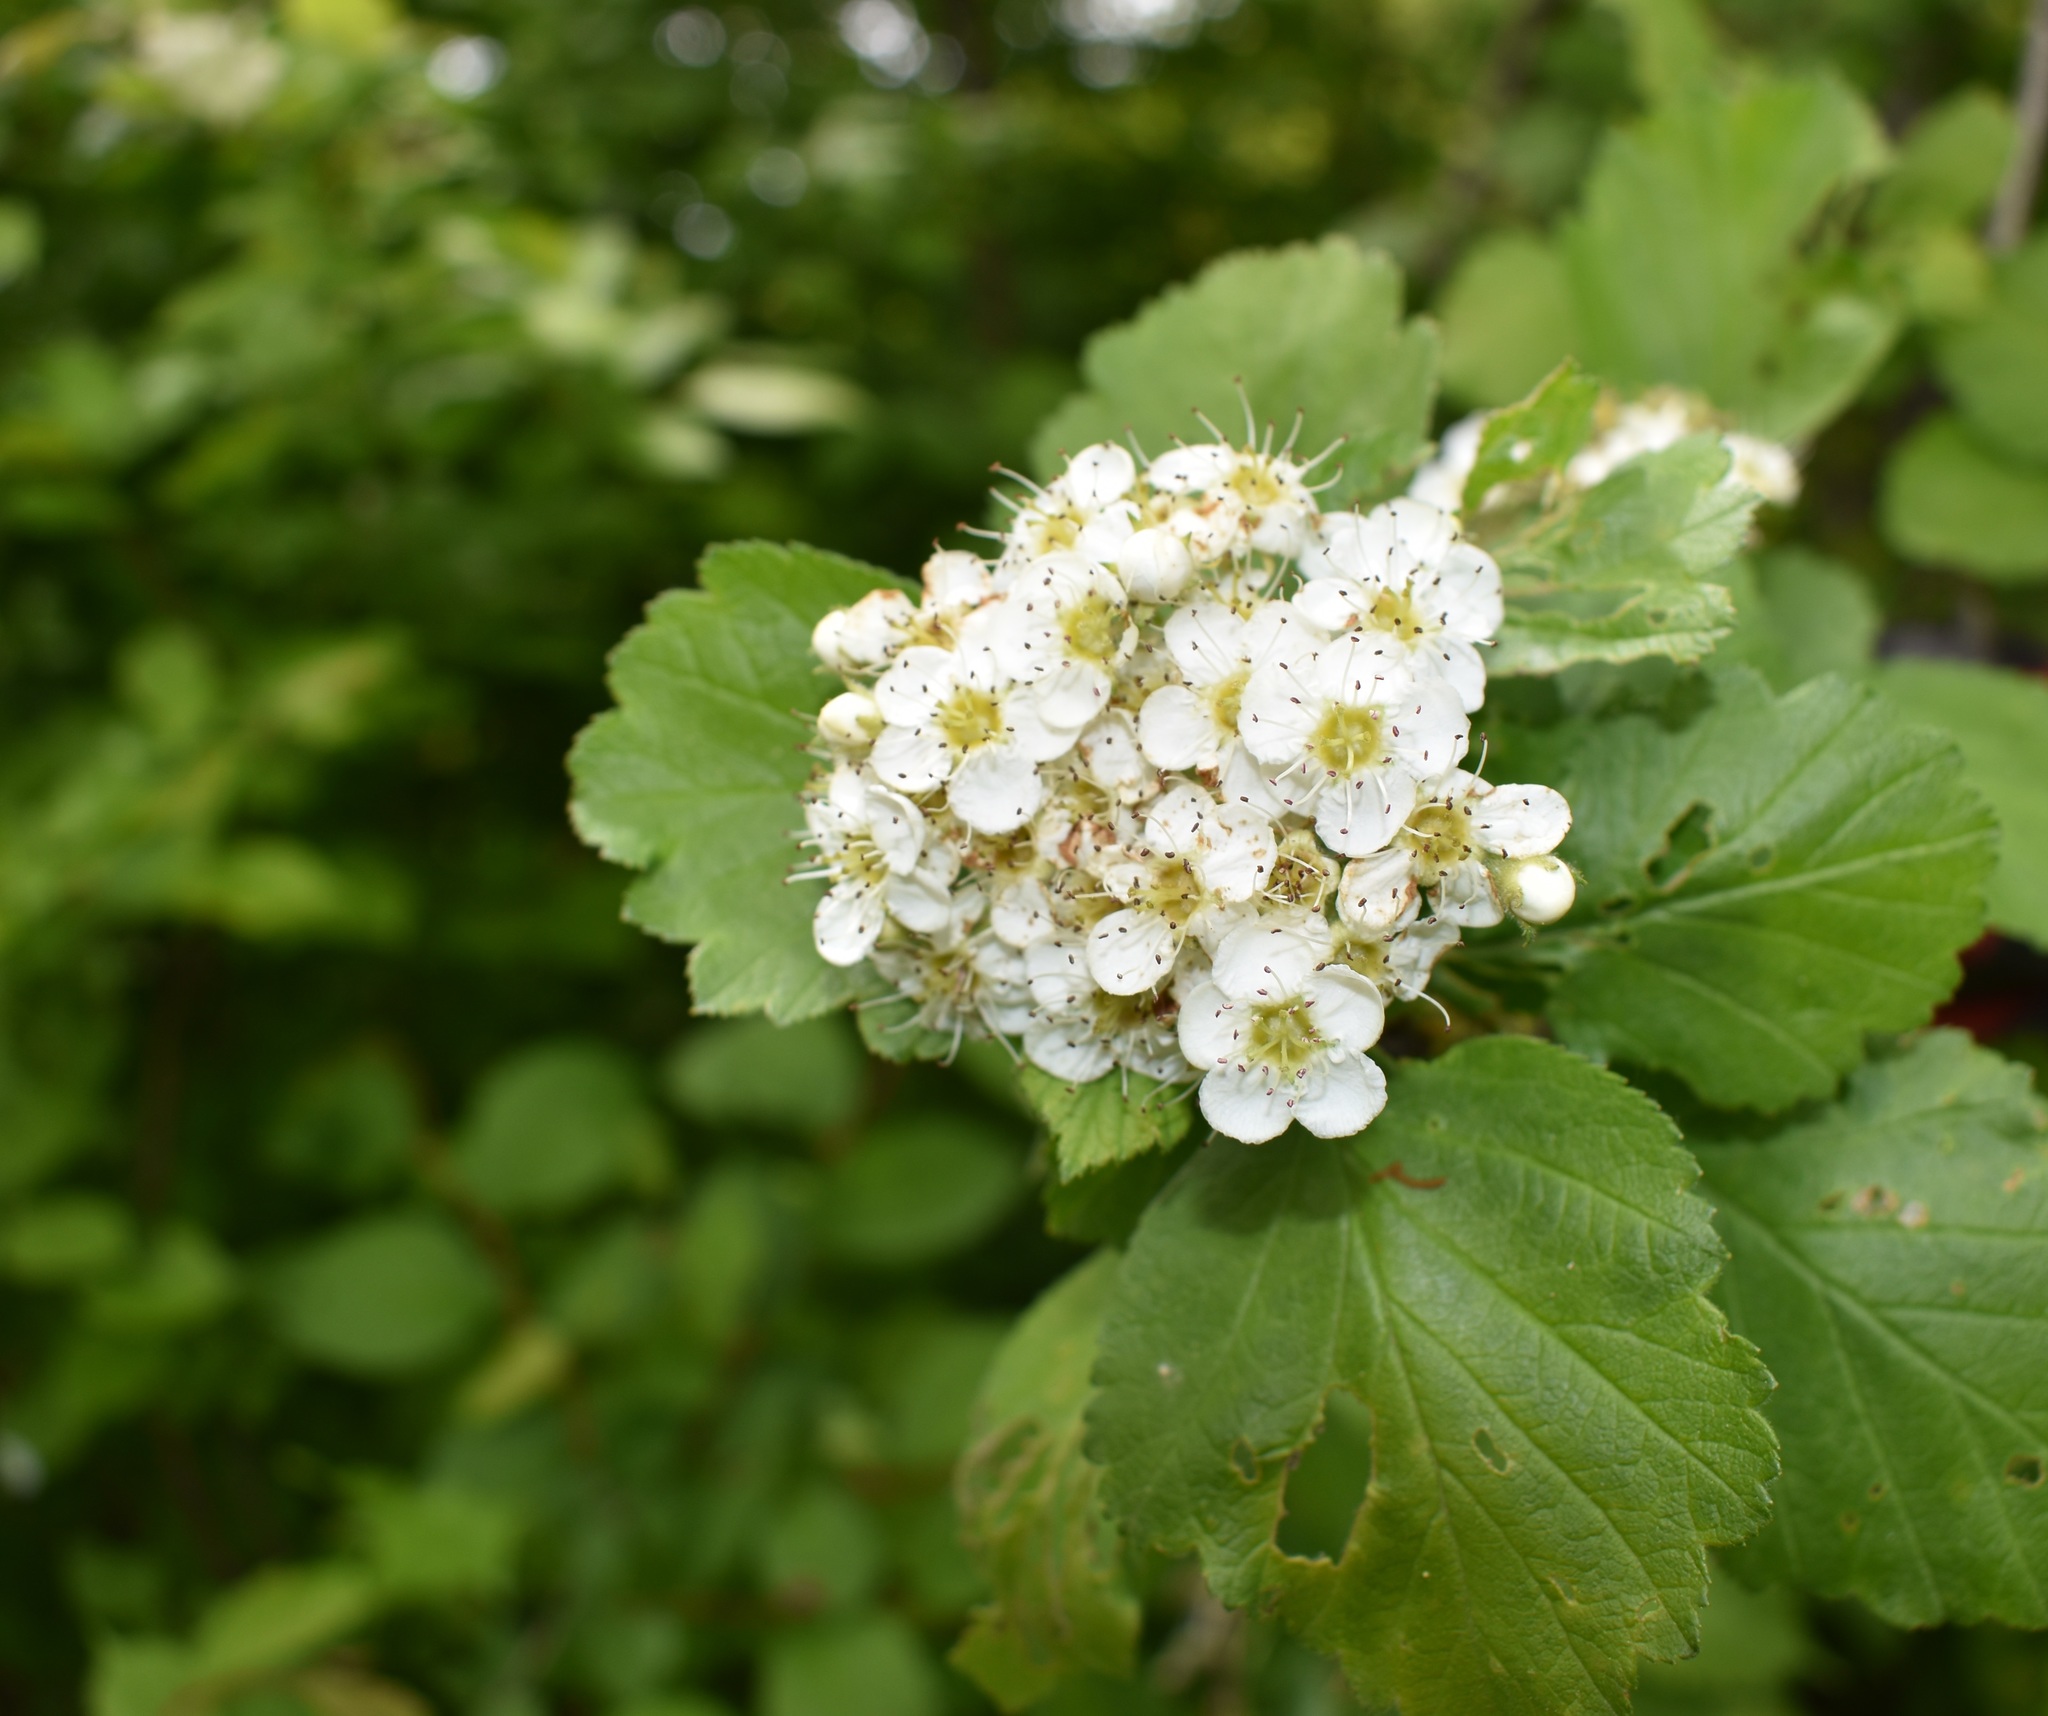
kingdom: Plantae
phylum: Tracheophyta
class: Magnoliopsida
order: Rosales
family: Rosaceae
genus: Crataegus
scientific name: Crataegus maximowiczii
